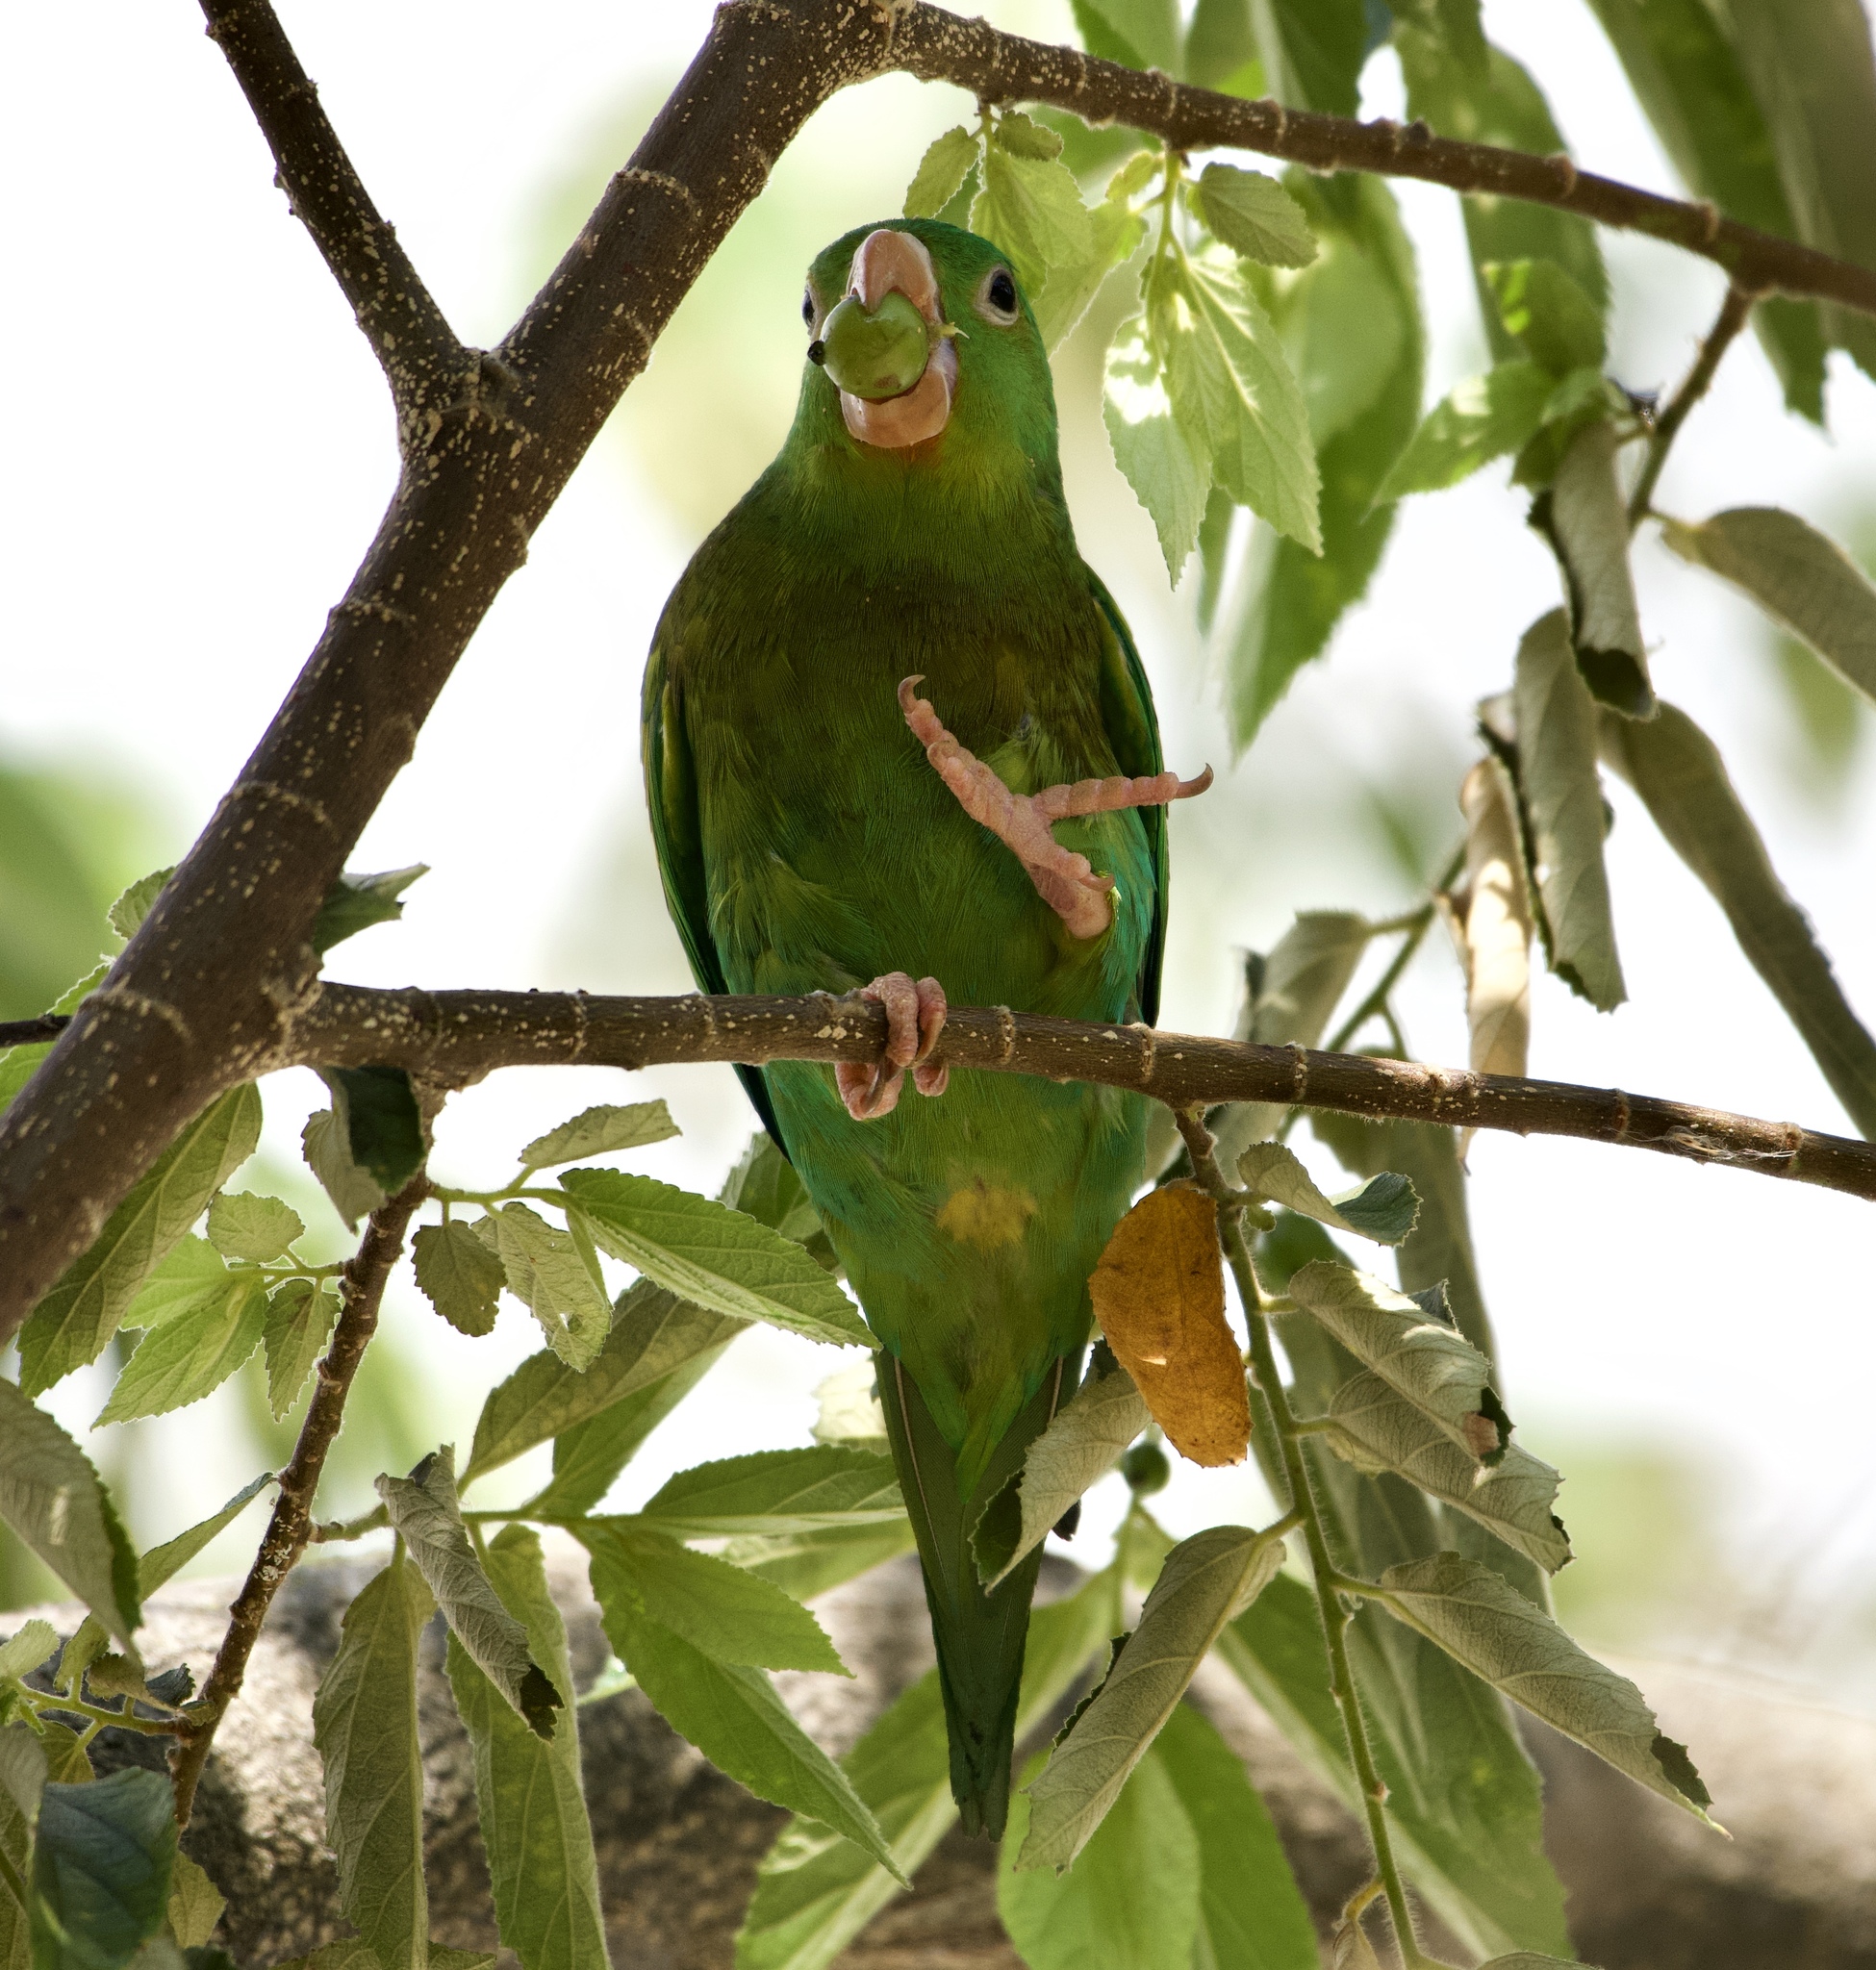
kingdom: Animalia
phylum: Chordata
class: Aves
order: Psittaciformes
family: Psittacidae
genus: Brotogeris
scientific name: Brotogeris jugularis
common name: Orange-chinned parakeet
